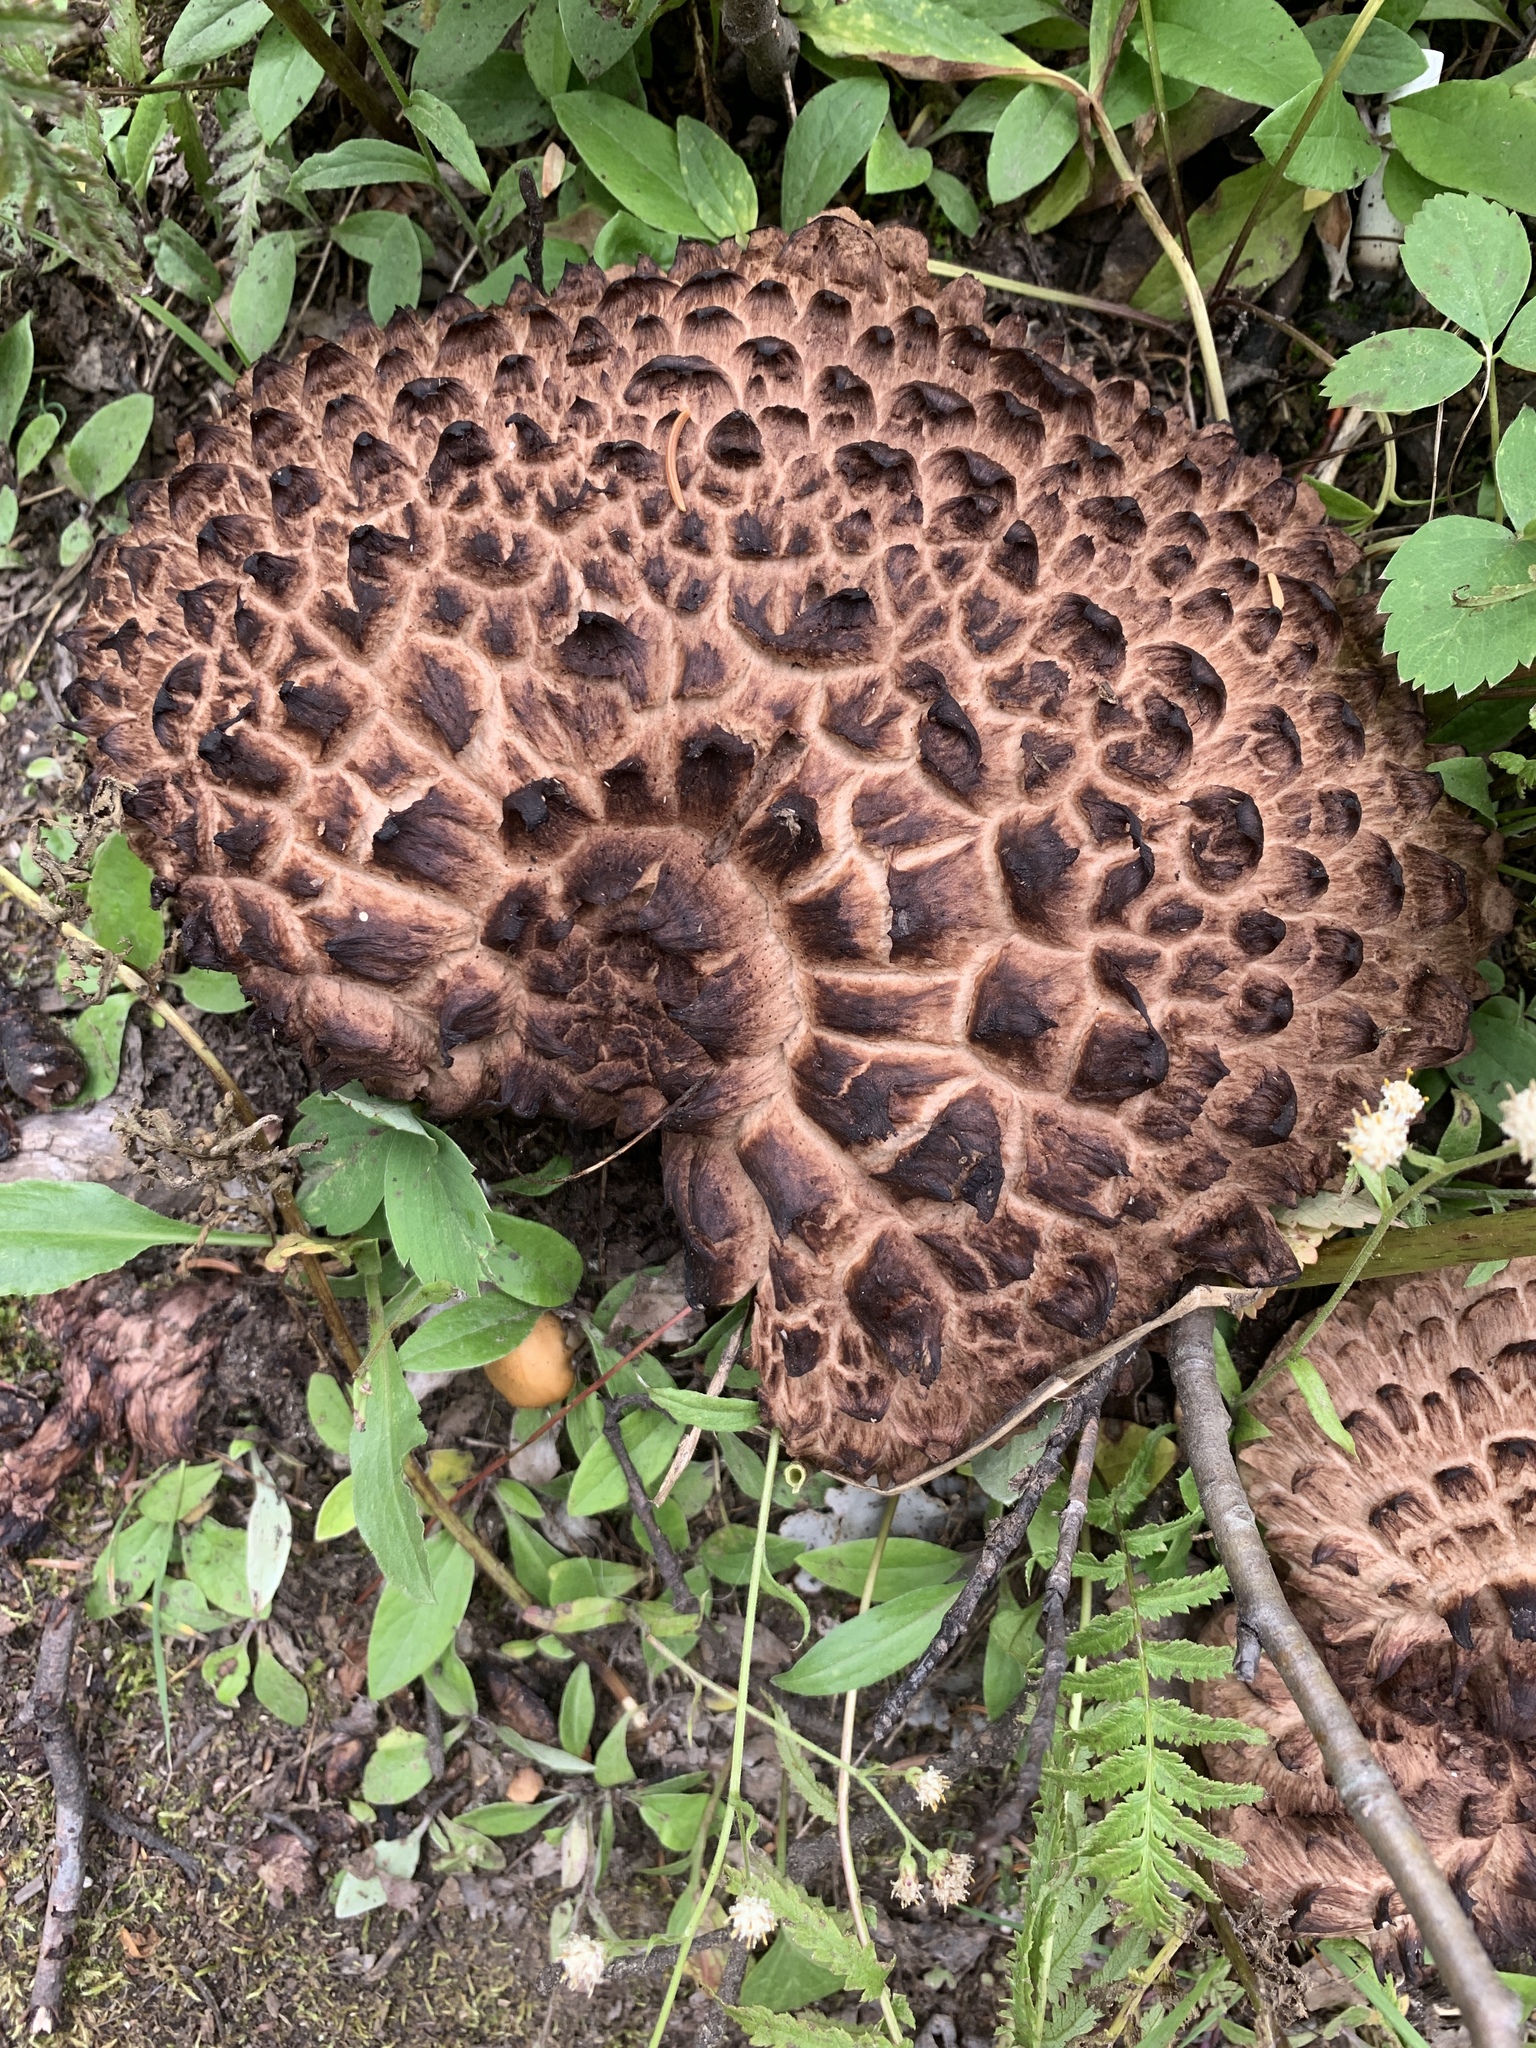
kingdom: Fungi
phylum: Basidiomycota
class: Agaricomycetes
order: Thelephorales
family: Bankeraceae
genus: Sarcodon
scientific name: Sarcodon imbricatus
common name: Shingled hedgehog
